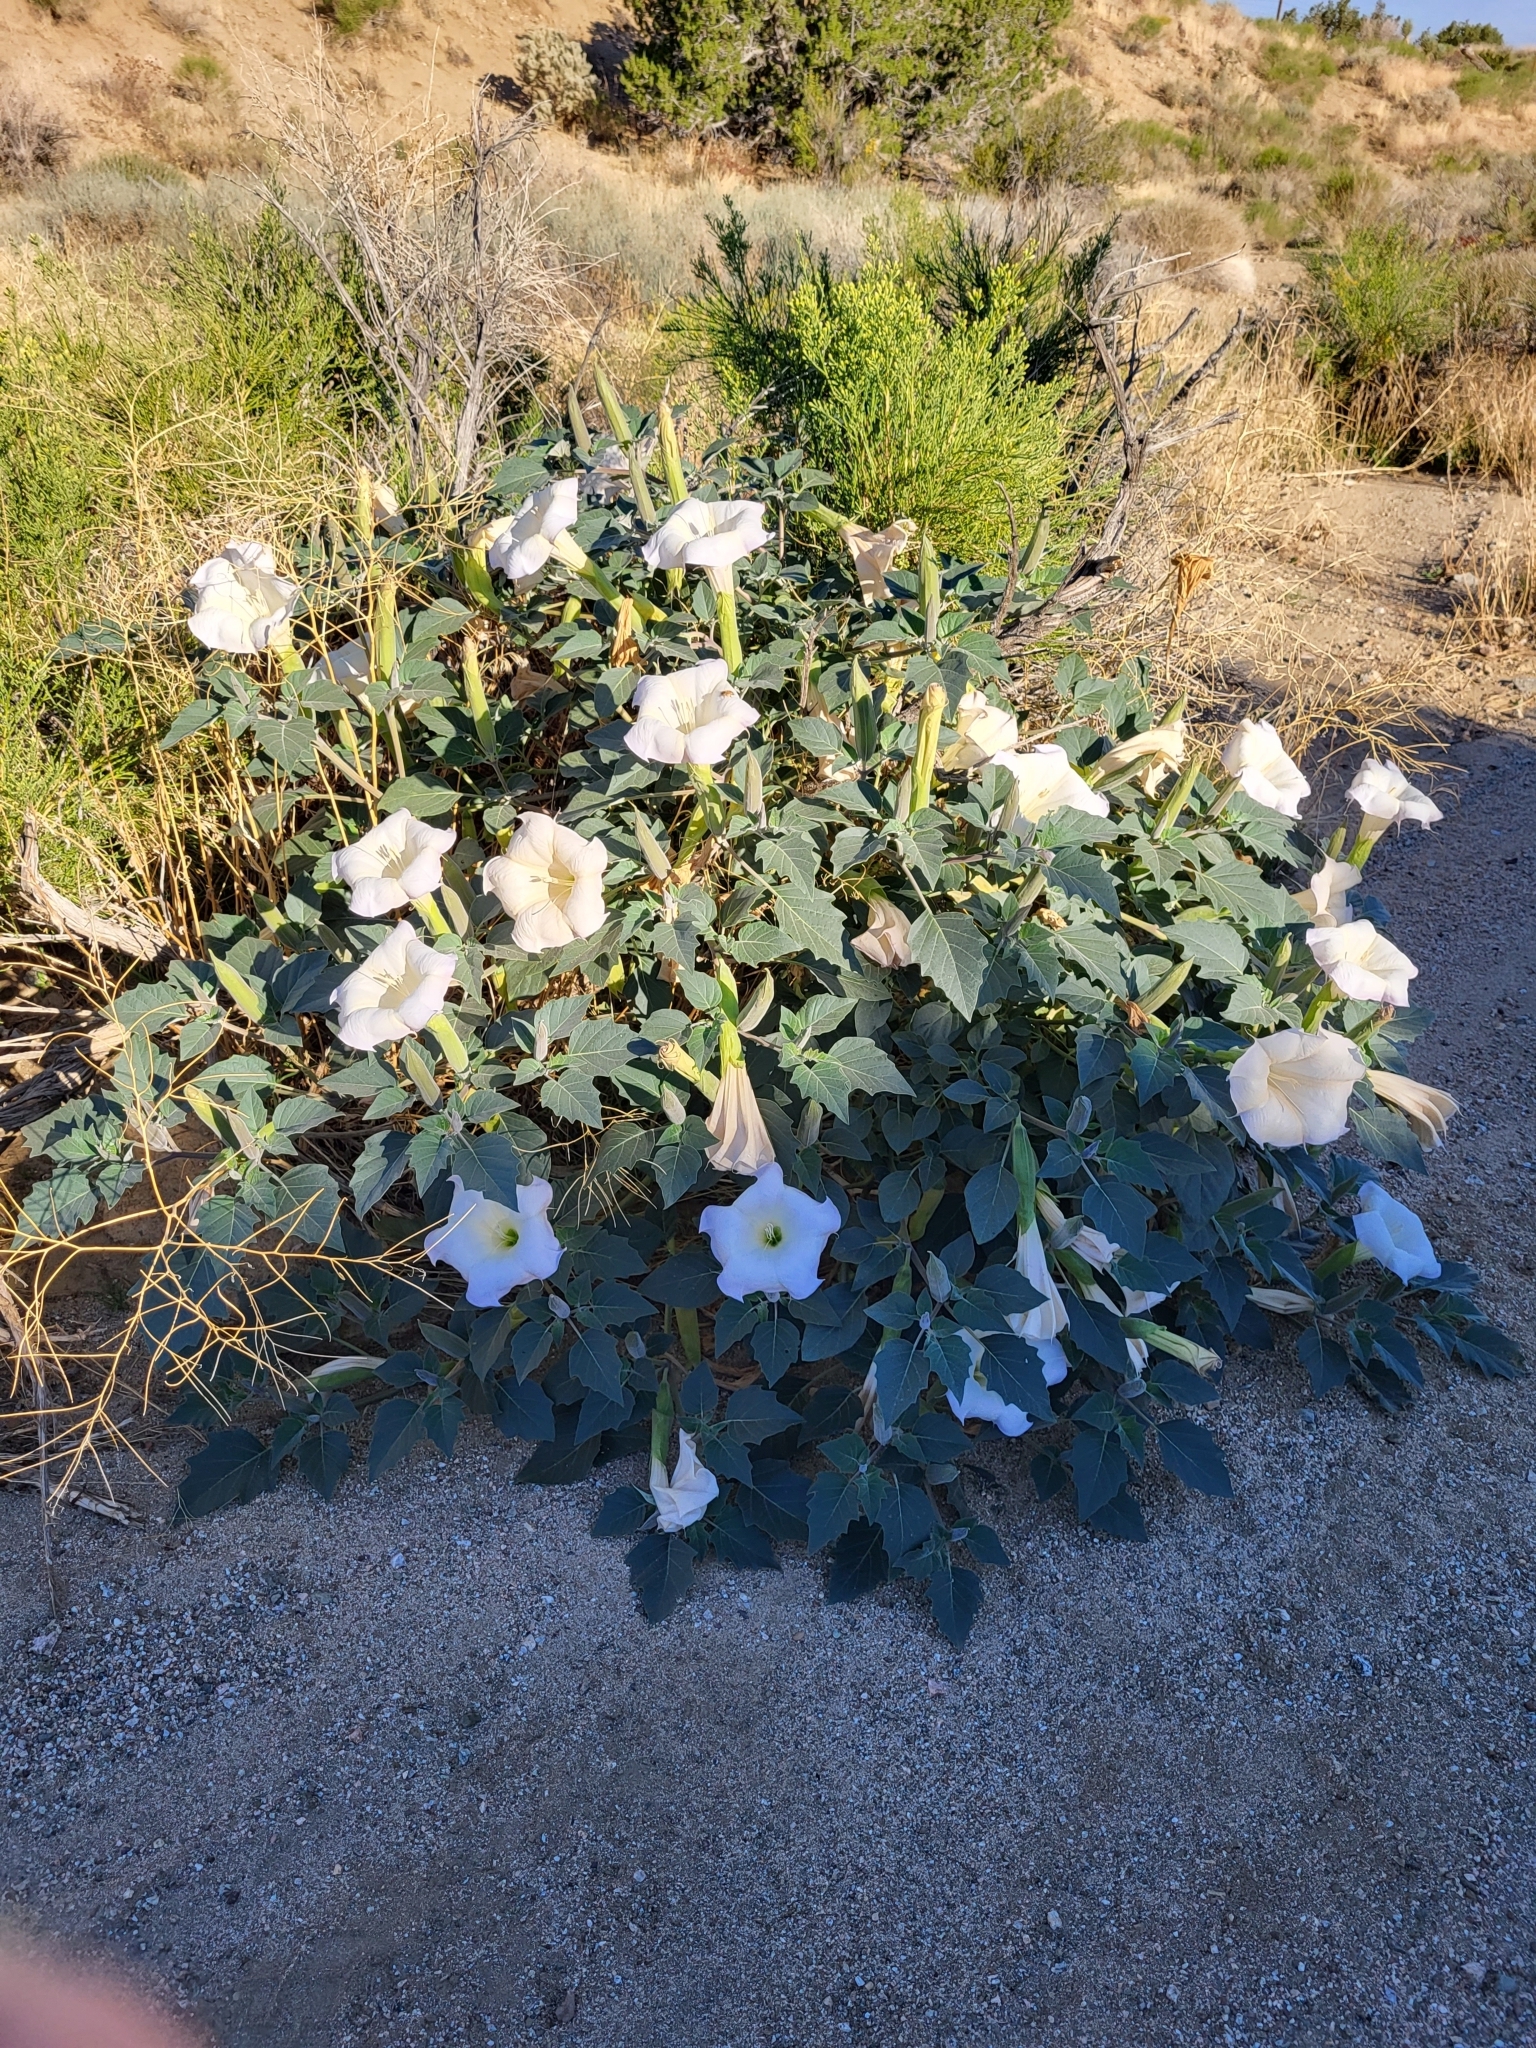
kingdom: Plantae
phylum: Tracheophyta
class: Magnoliopsida
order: Solanales
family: Solanaceae
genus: Datura
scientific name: Datura wrightii
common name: Sacred thorn-apple
